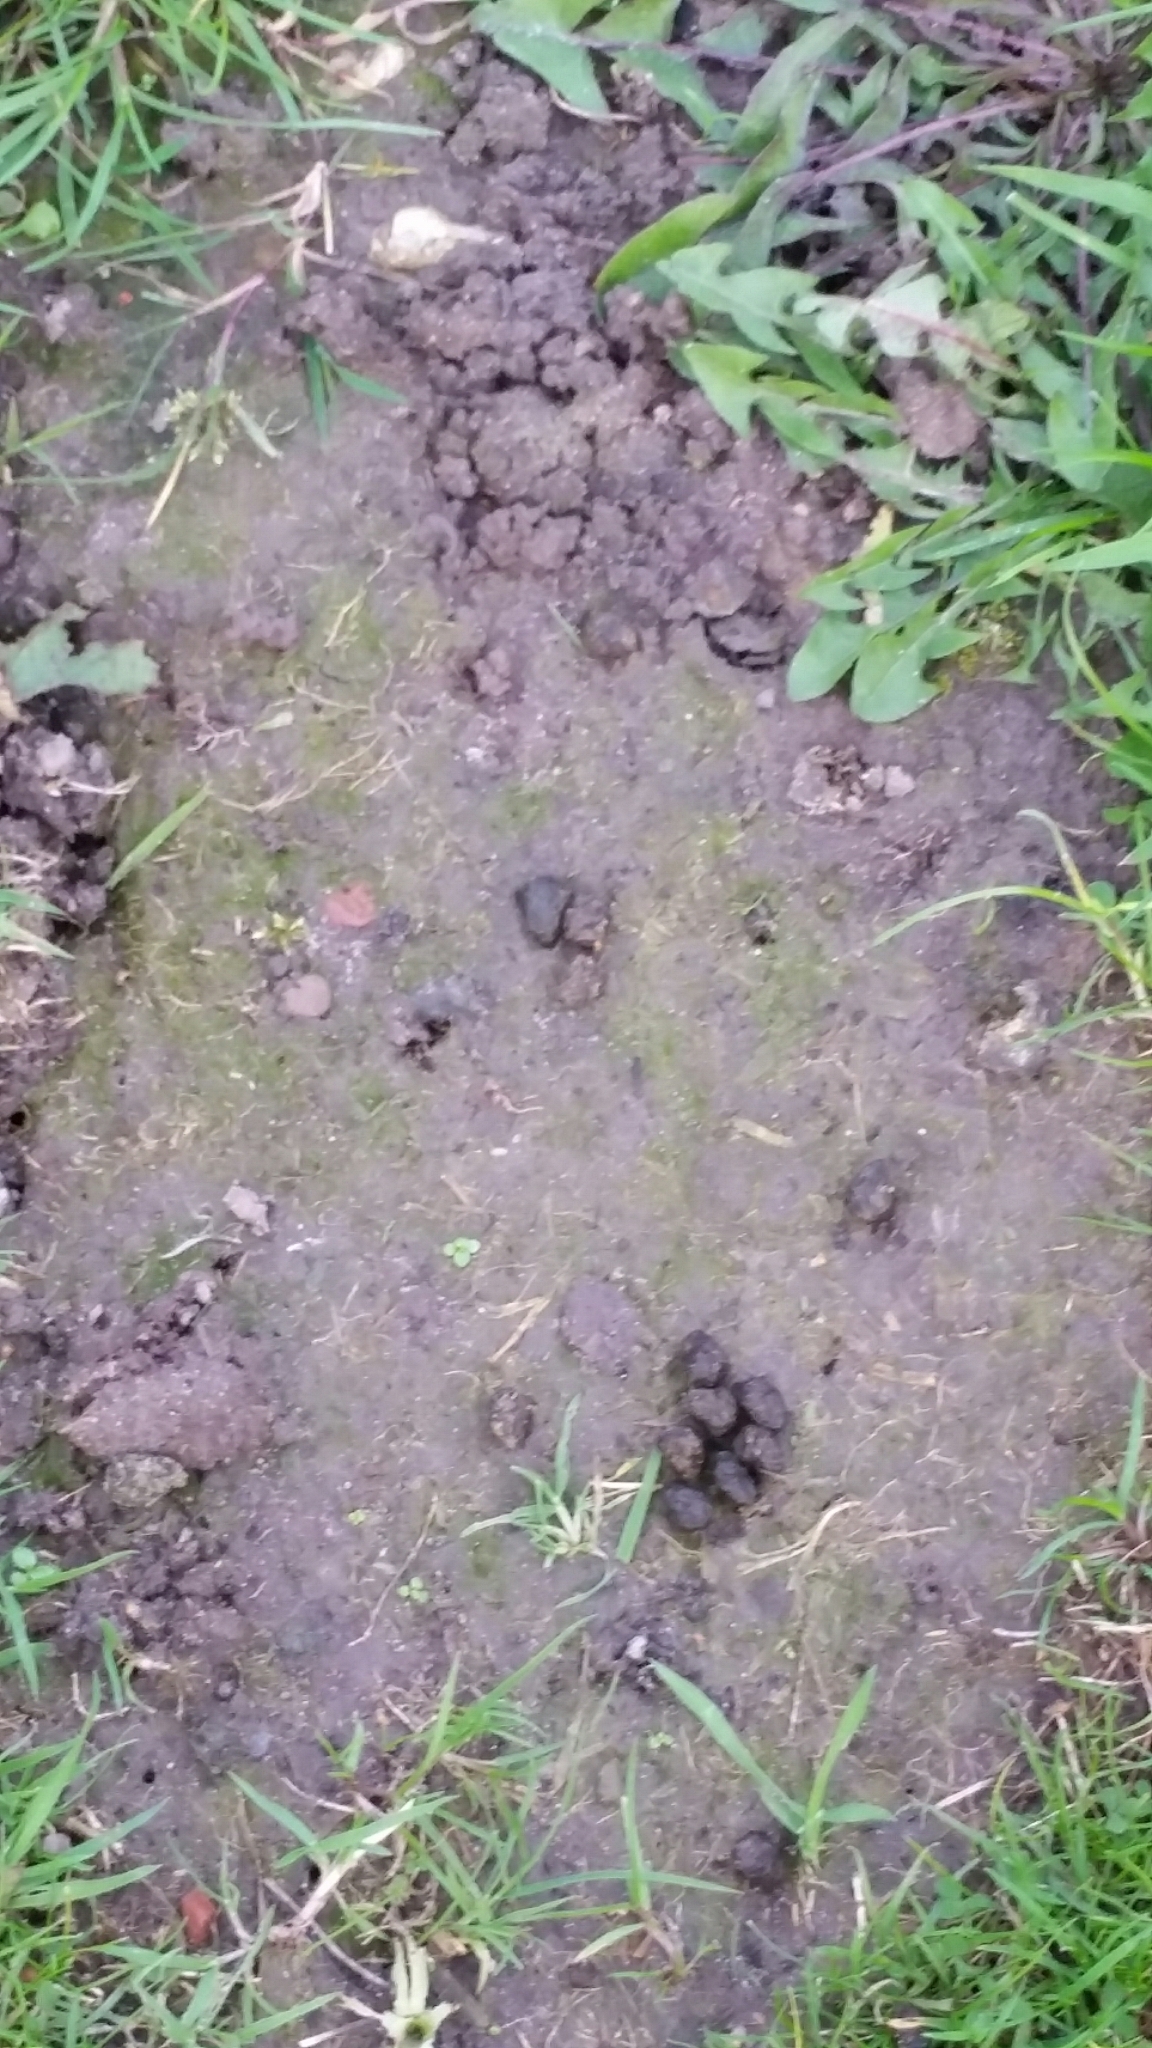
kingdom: Animalia
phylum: Chordata
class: Mammalia
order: Lagomorpha
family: Leporidae
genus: Oryctolagus
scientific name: Oryctolagus cuniculus
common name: European rabbit
